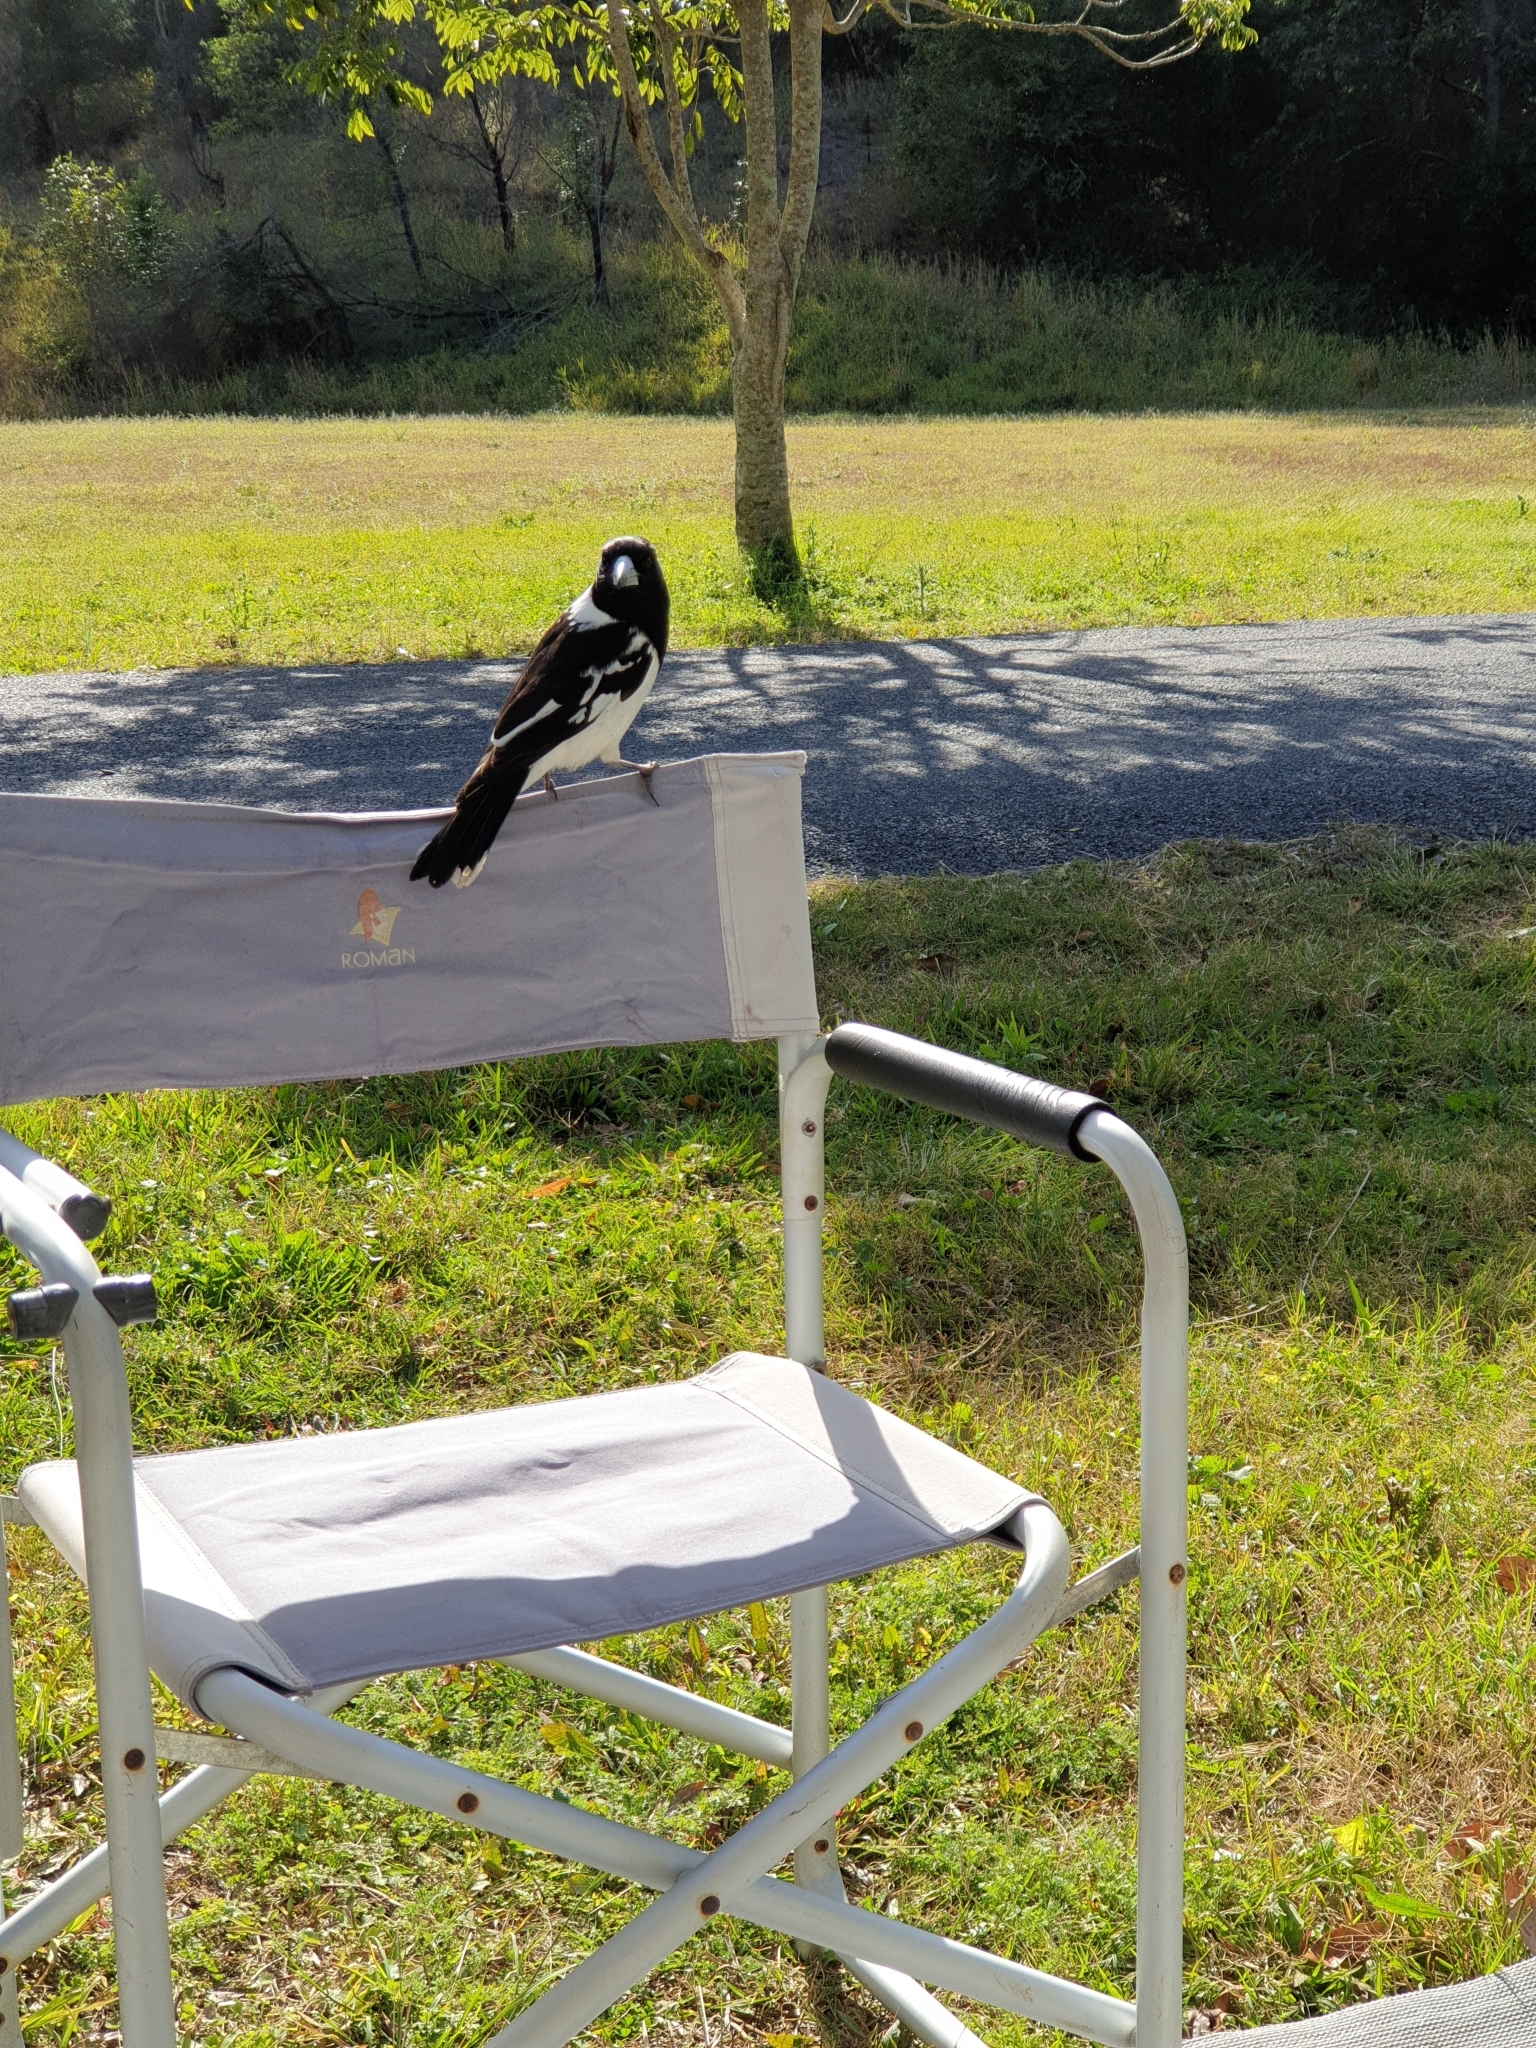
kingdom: Animalia
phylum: Chordata
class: Aves
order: Passeriformes
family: Cracticidae
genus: Cracticus
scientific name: Cracticus nigrogularis
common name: Pied butcherbird
